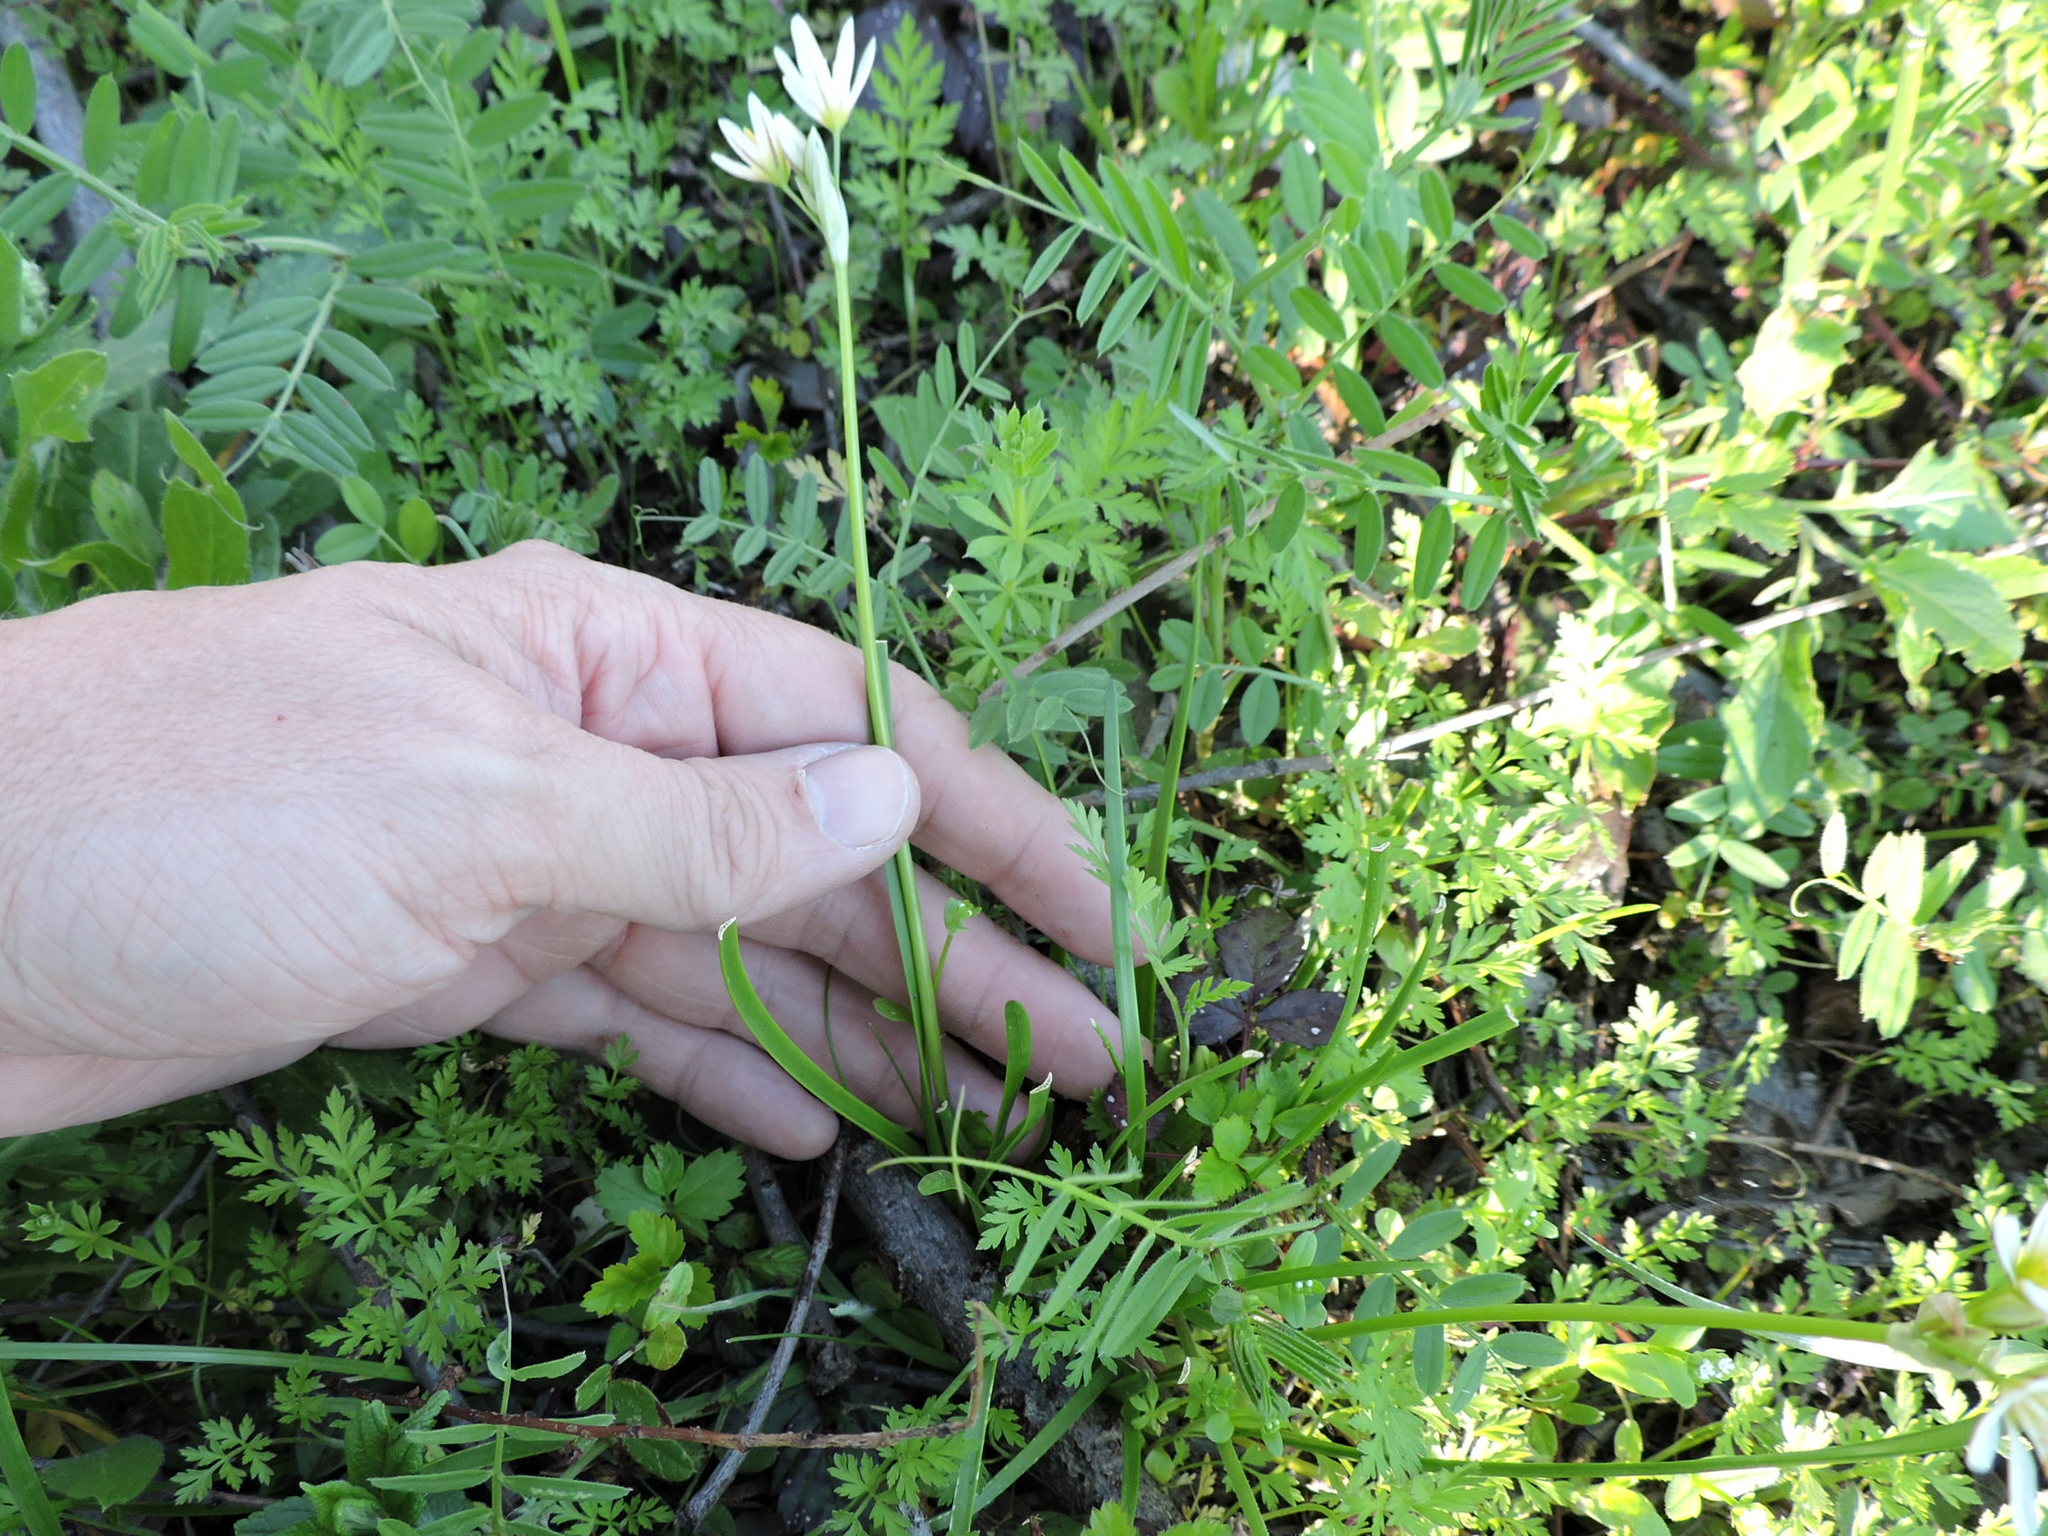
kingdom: Plantae
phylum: Tracheophyta
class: Liliopsida
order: Asparagales
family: Amaryllidaceae
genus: Nothoscordum
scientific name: Nothoscordum bivalve
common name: Crow-poison
